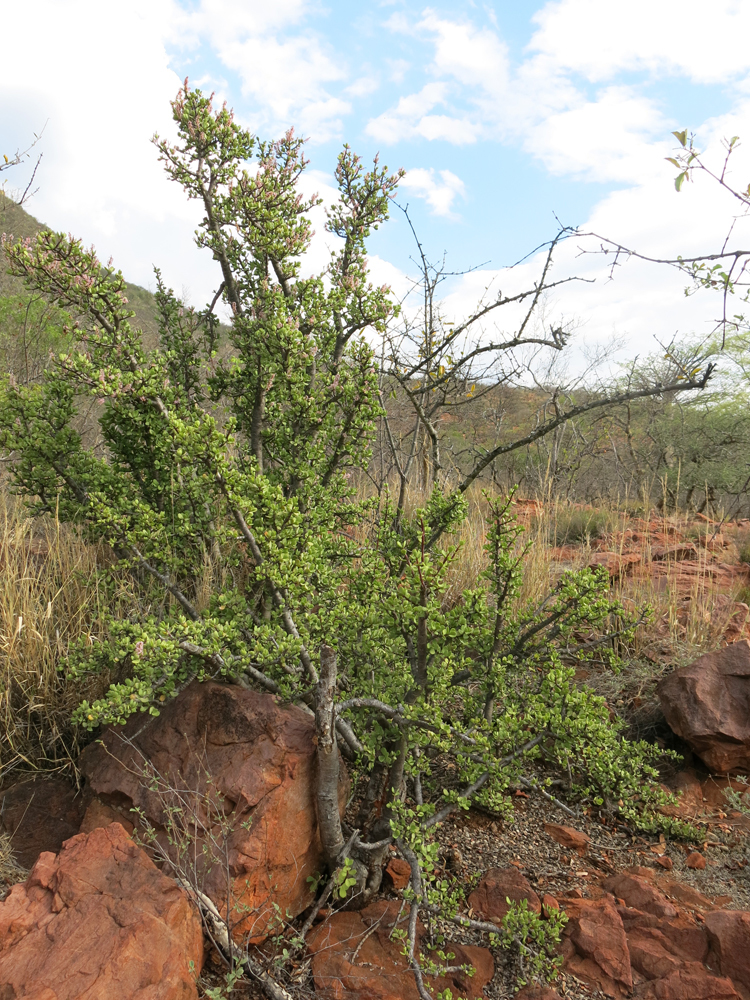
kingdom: Plantae
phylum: Tracheophyta
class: Magnoliopsida
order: Caryophyllales
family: Didiereaceae
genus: Portulacaria
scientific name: Portulacaria afra
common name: Elephant-bush
